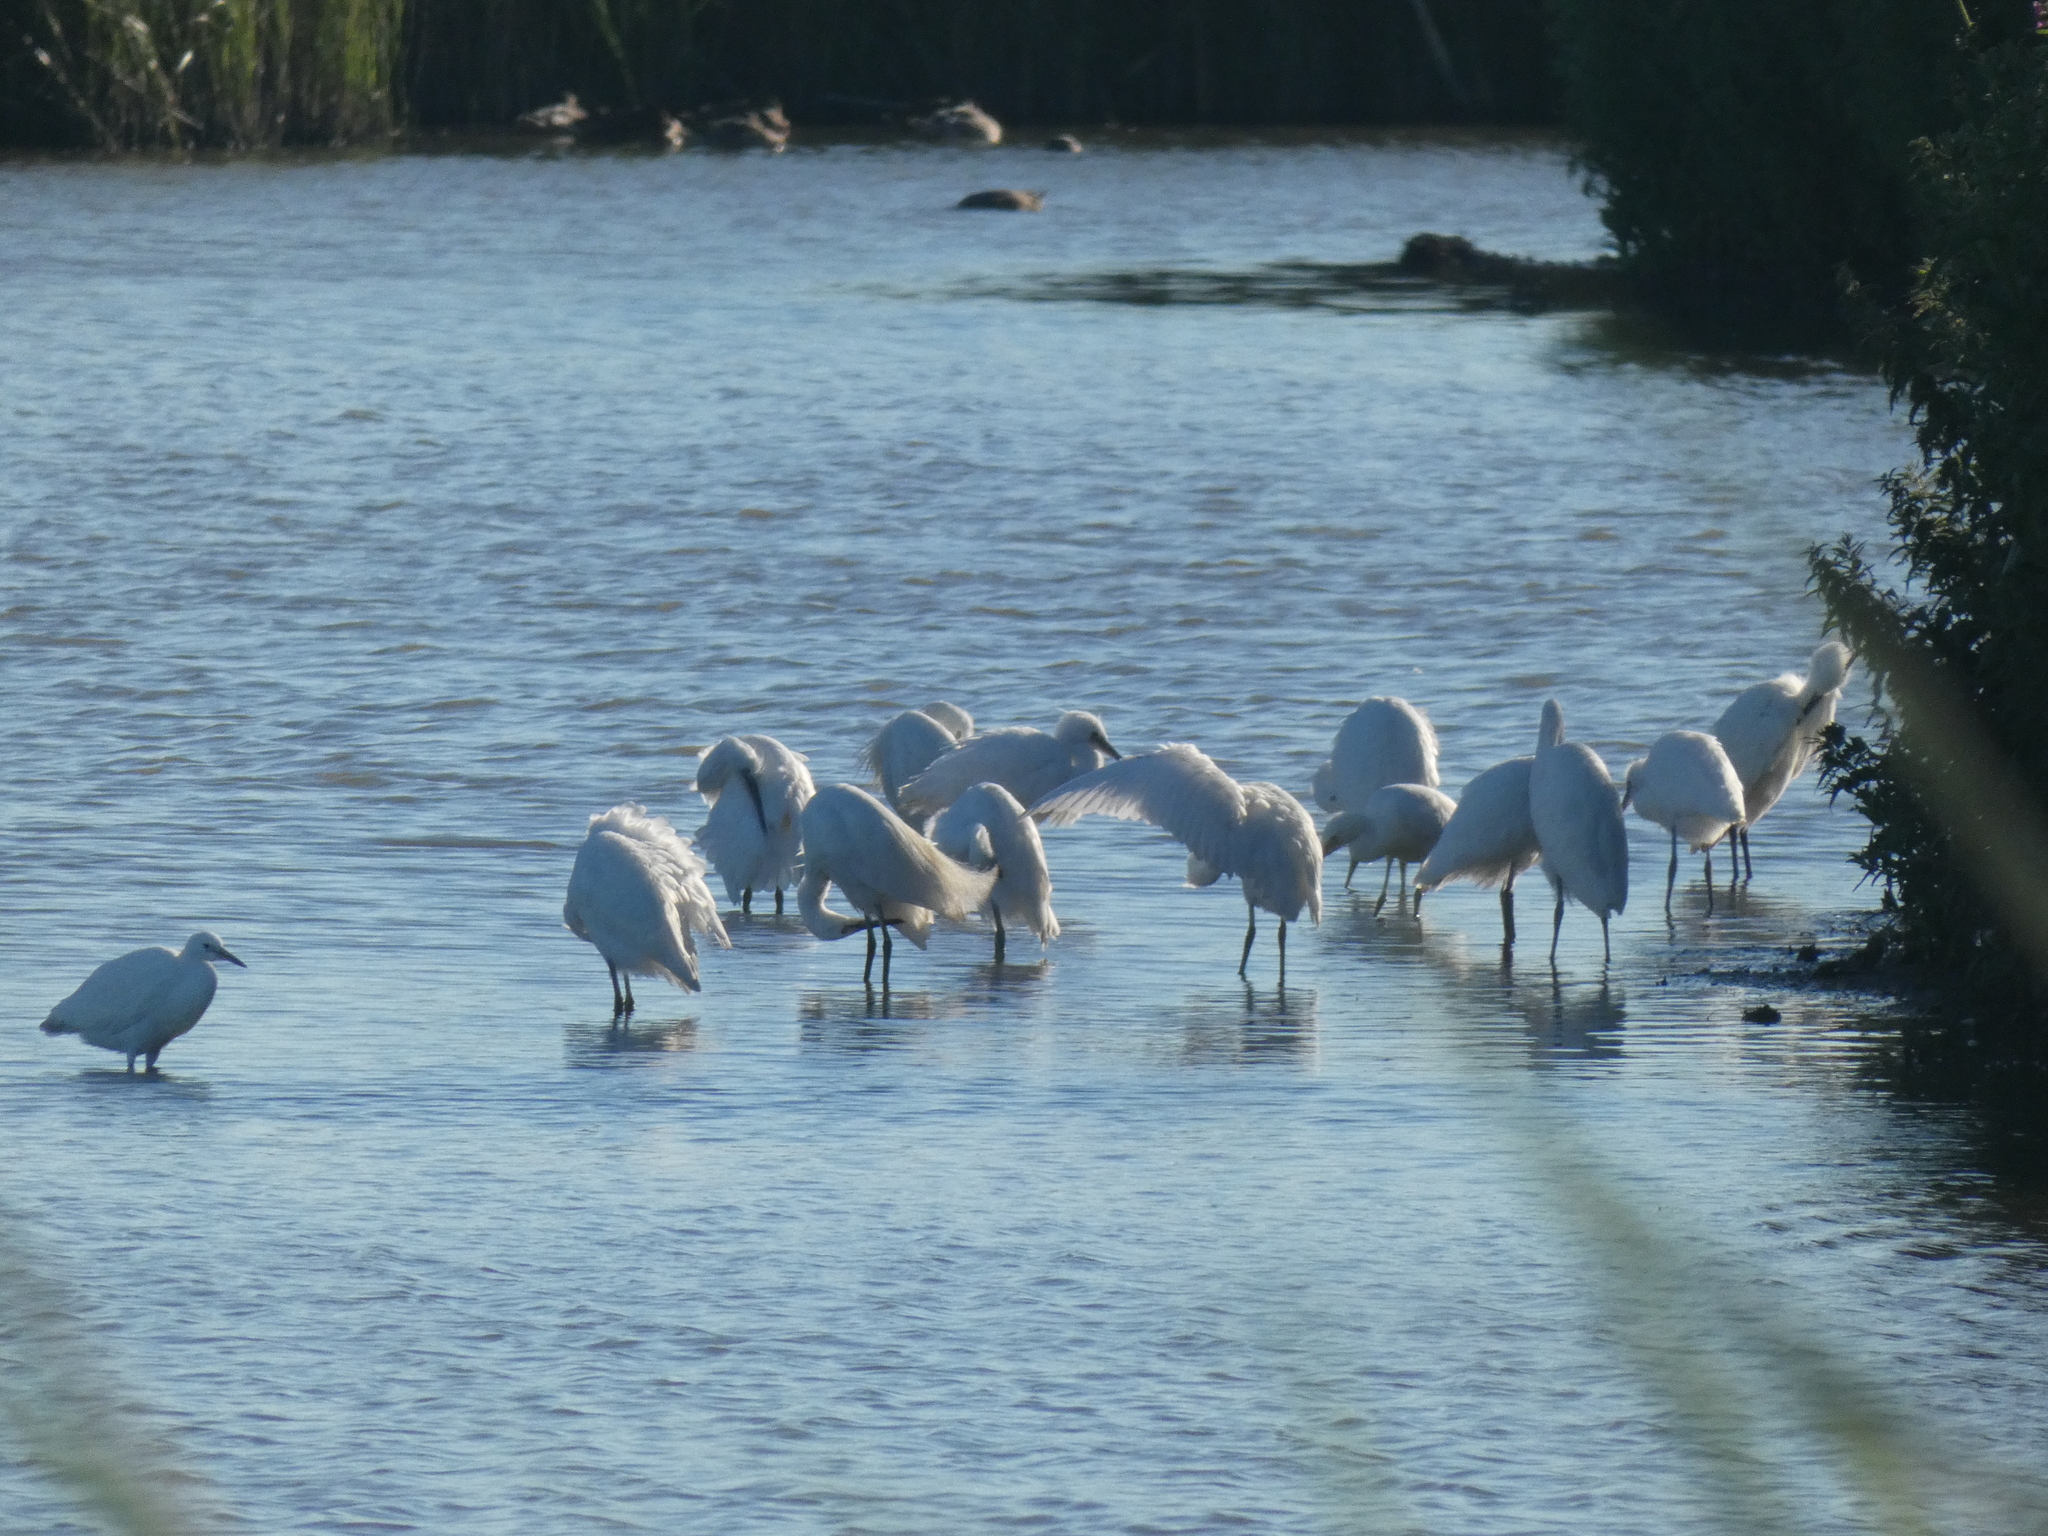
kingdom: Animalia
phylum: Chordata
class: Aves
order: Pelecaniformes
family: Ardeidae
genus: Egretta
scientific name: Egretta garzetta
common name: Little egret
